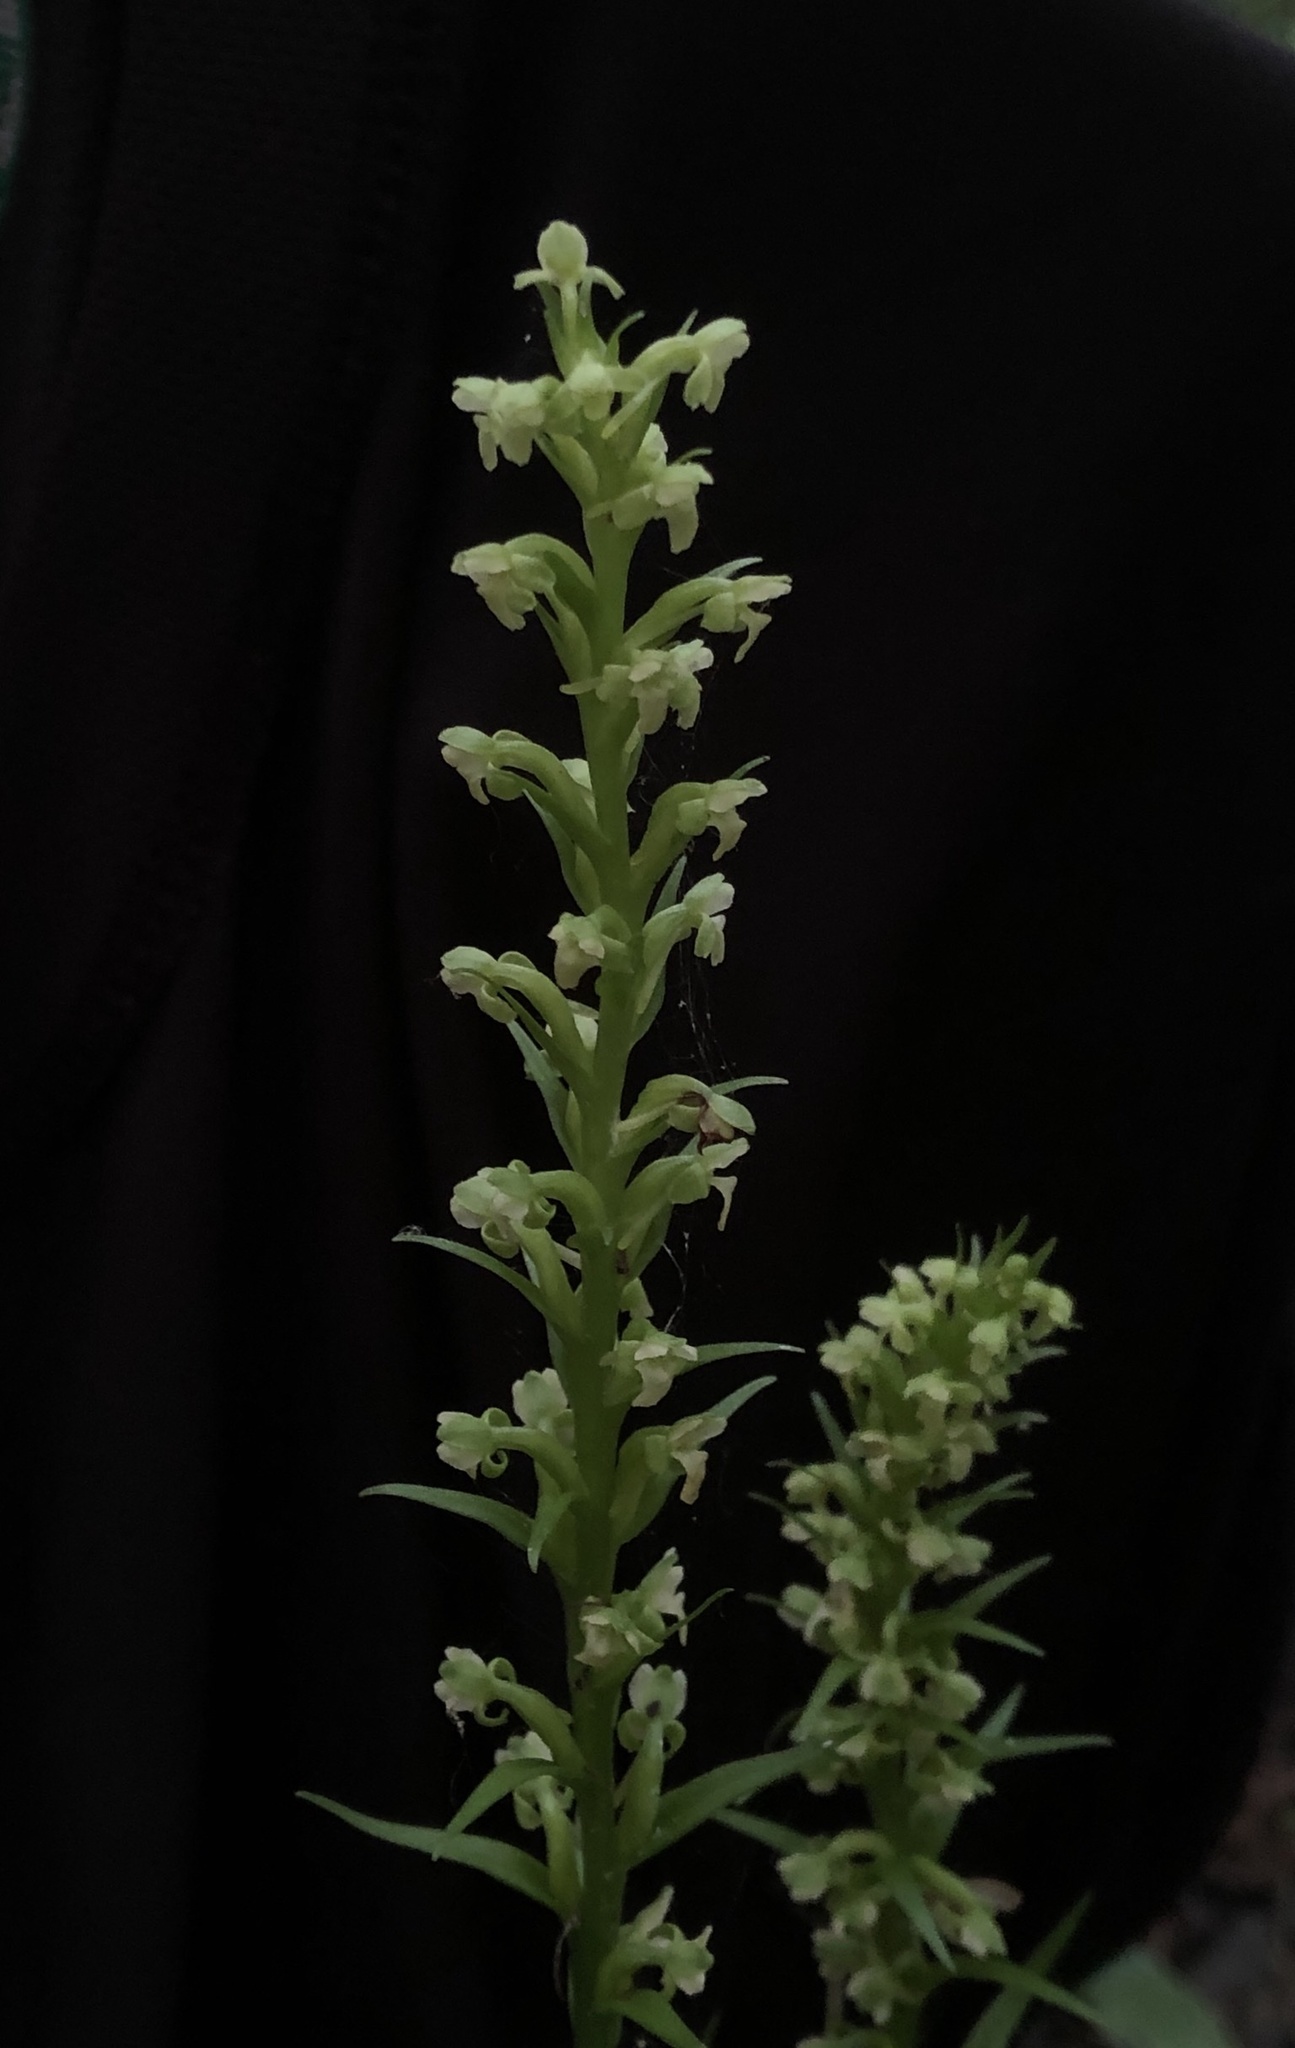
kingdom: Plantae
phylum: Tracheophyta
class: Liliopsida
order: Asparagales
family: Orchidaceae
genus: Platanthera
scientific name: Platanthera flava
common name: Gypsy-spikes
